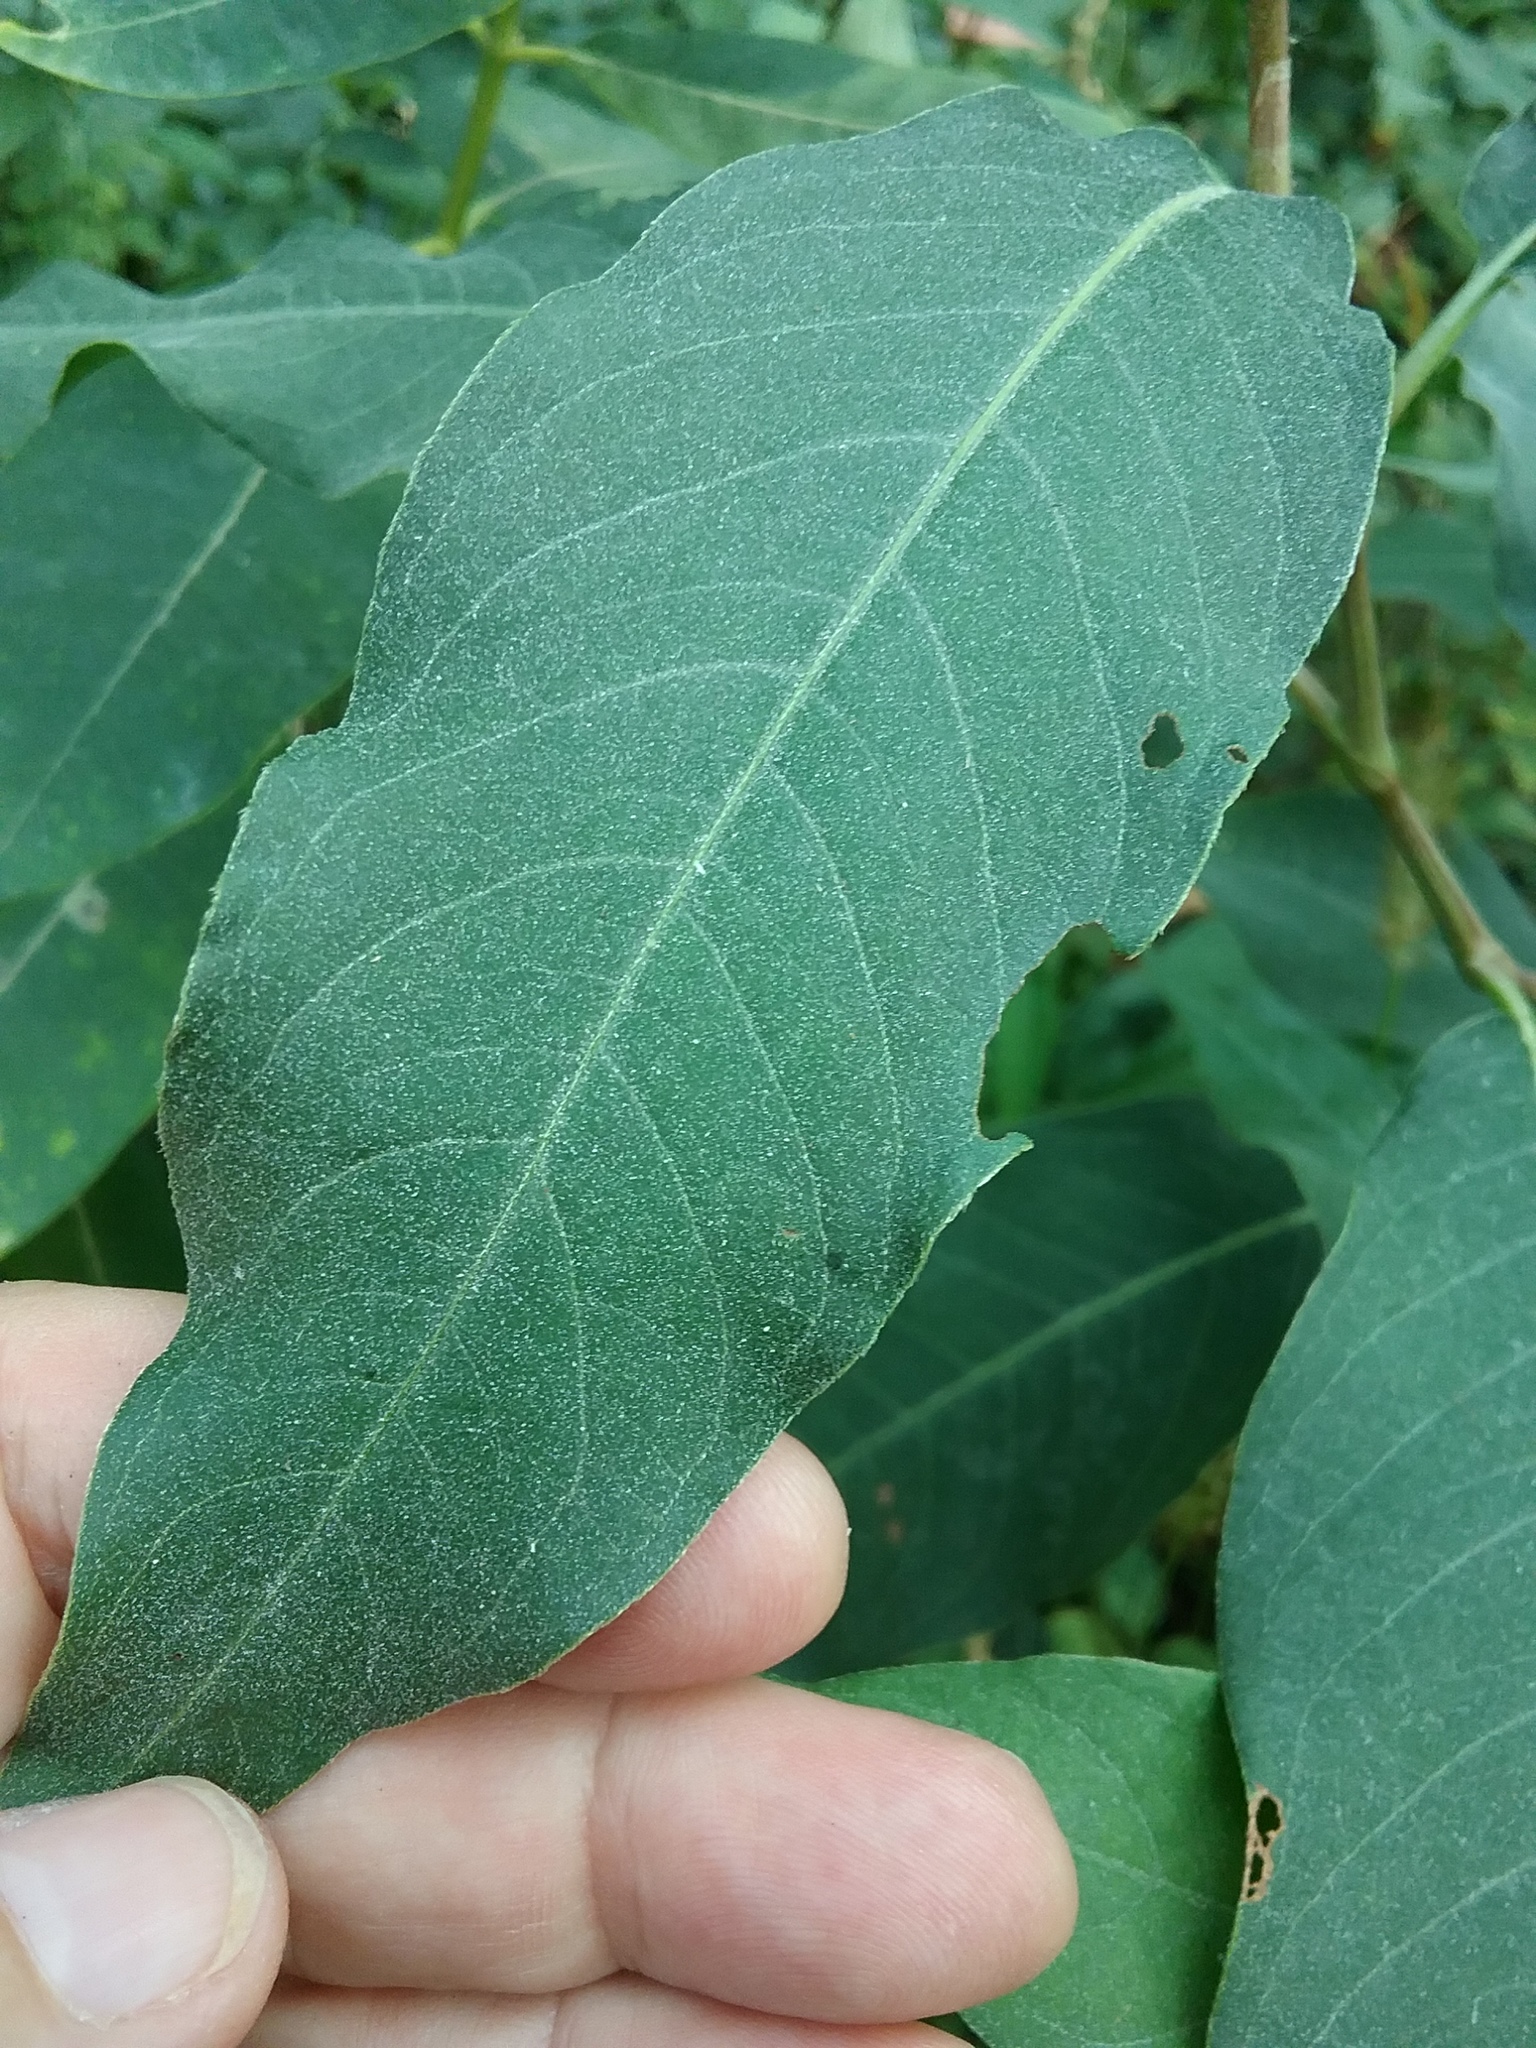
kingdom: Plantae
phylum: Tracheophyta
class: Magnoliopsida
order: Caryophyllales
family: Polygonaceae
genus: Persicaria
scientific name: Persicaria amphibia
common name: Amphibious bistort
